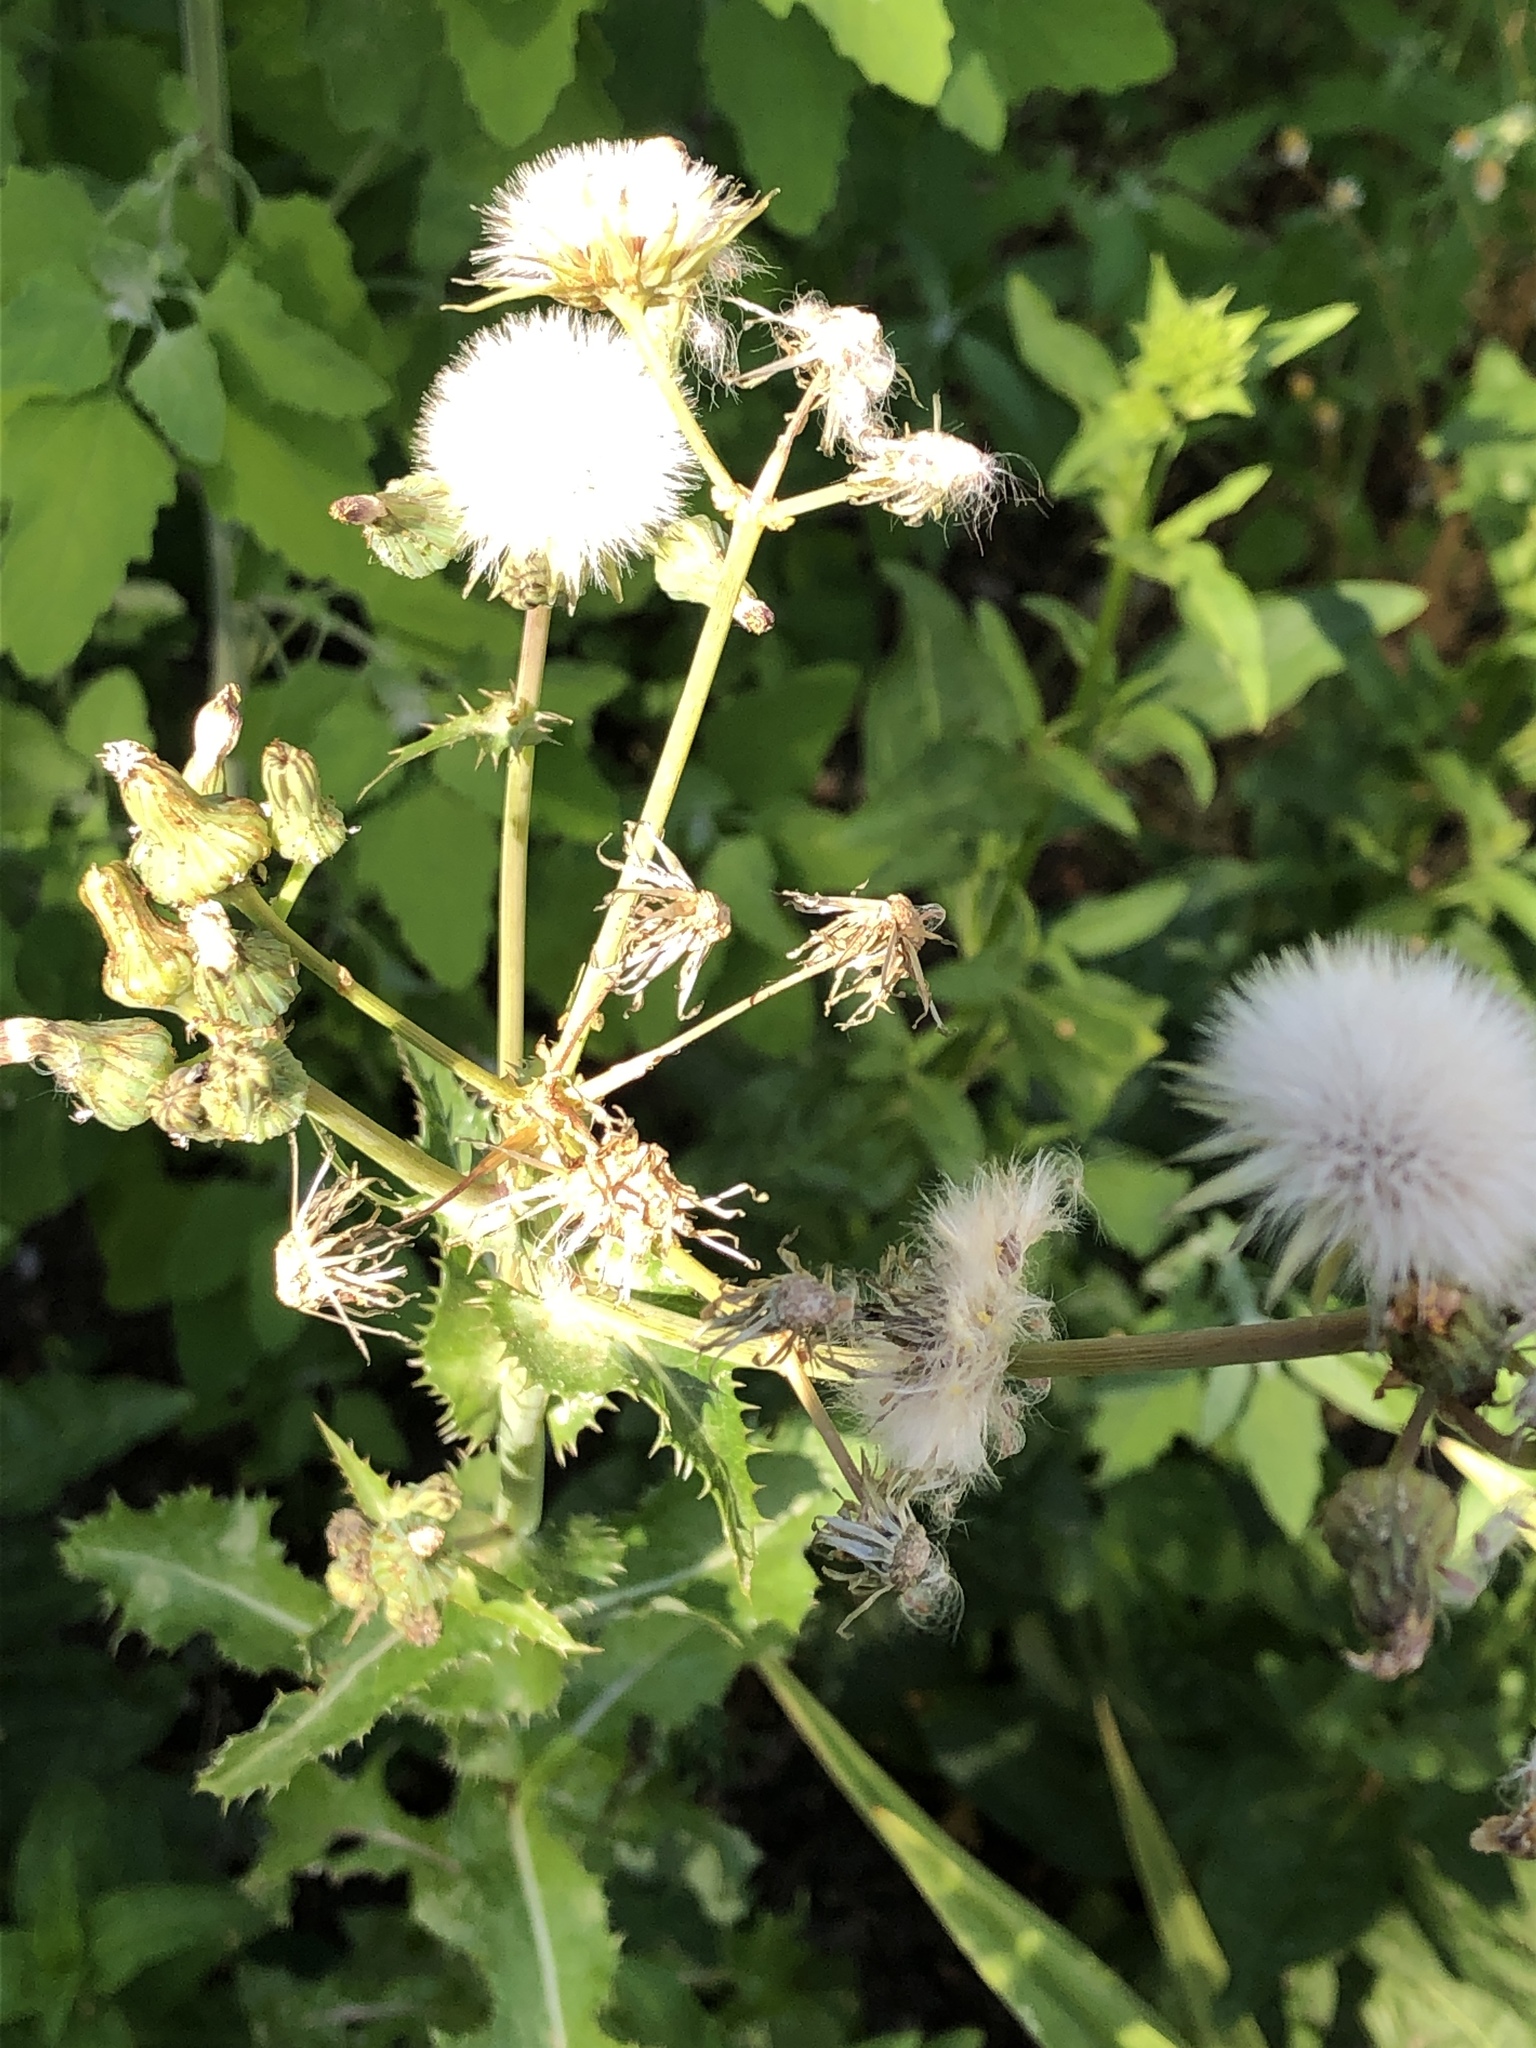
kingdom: Plantae
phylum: Tracheophyta
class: Magnoliopsida
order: Asterales
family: Asteraceae
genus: Sonchus
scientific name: Sonchus asper
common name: Prickly sow-thistle
